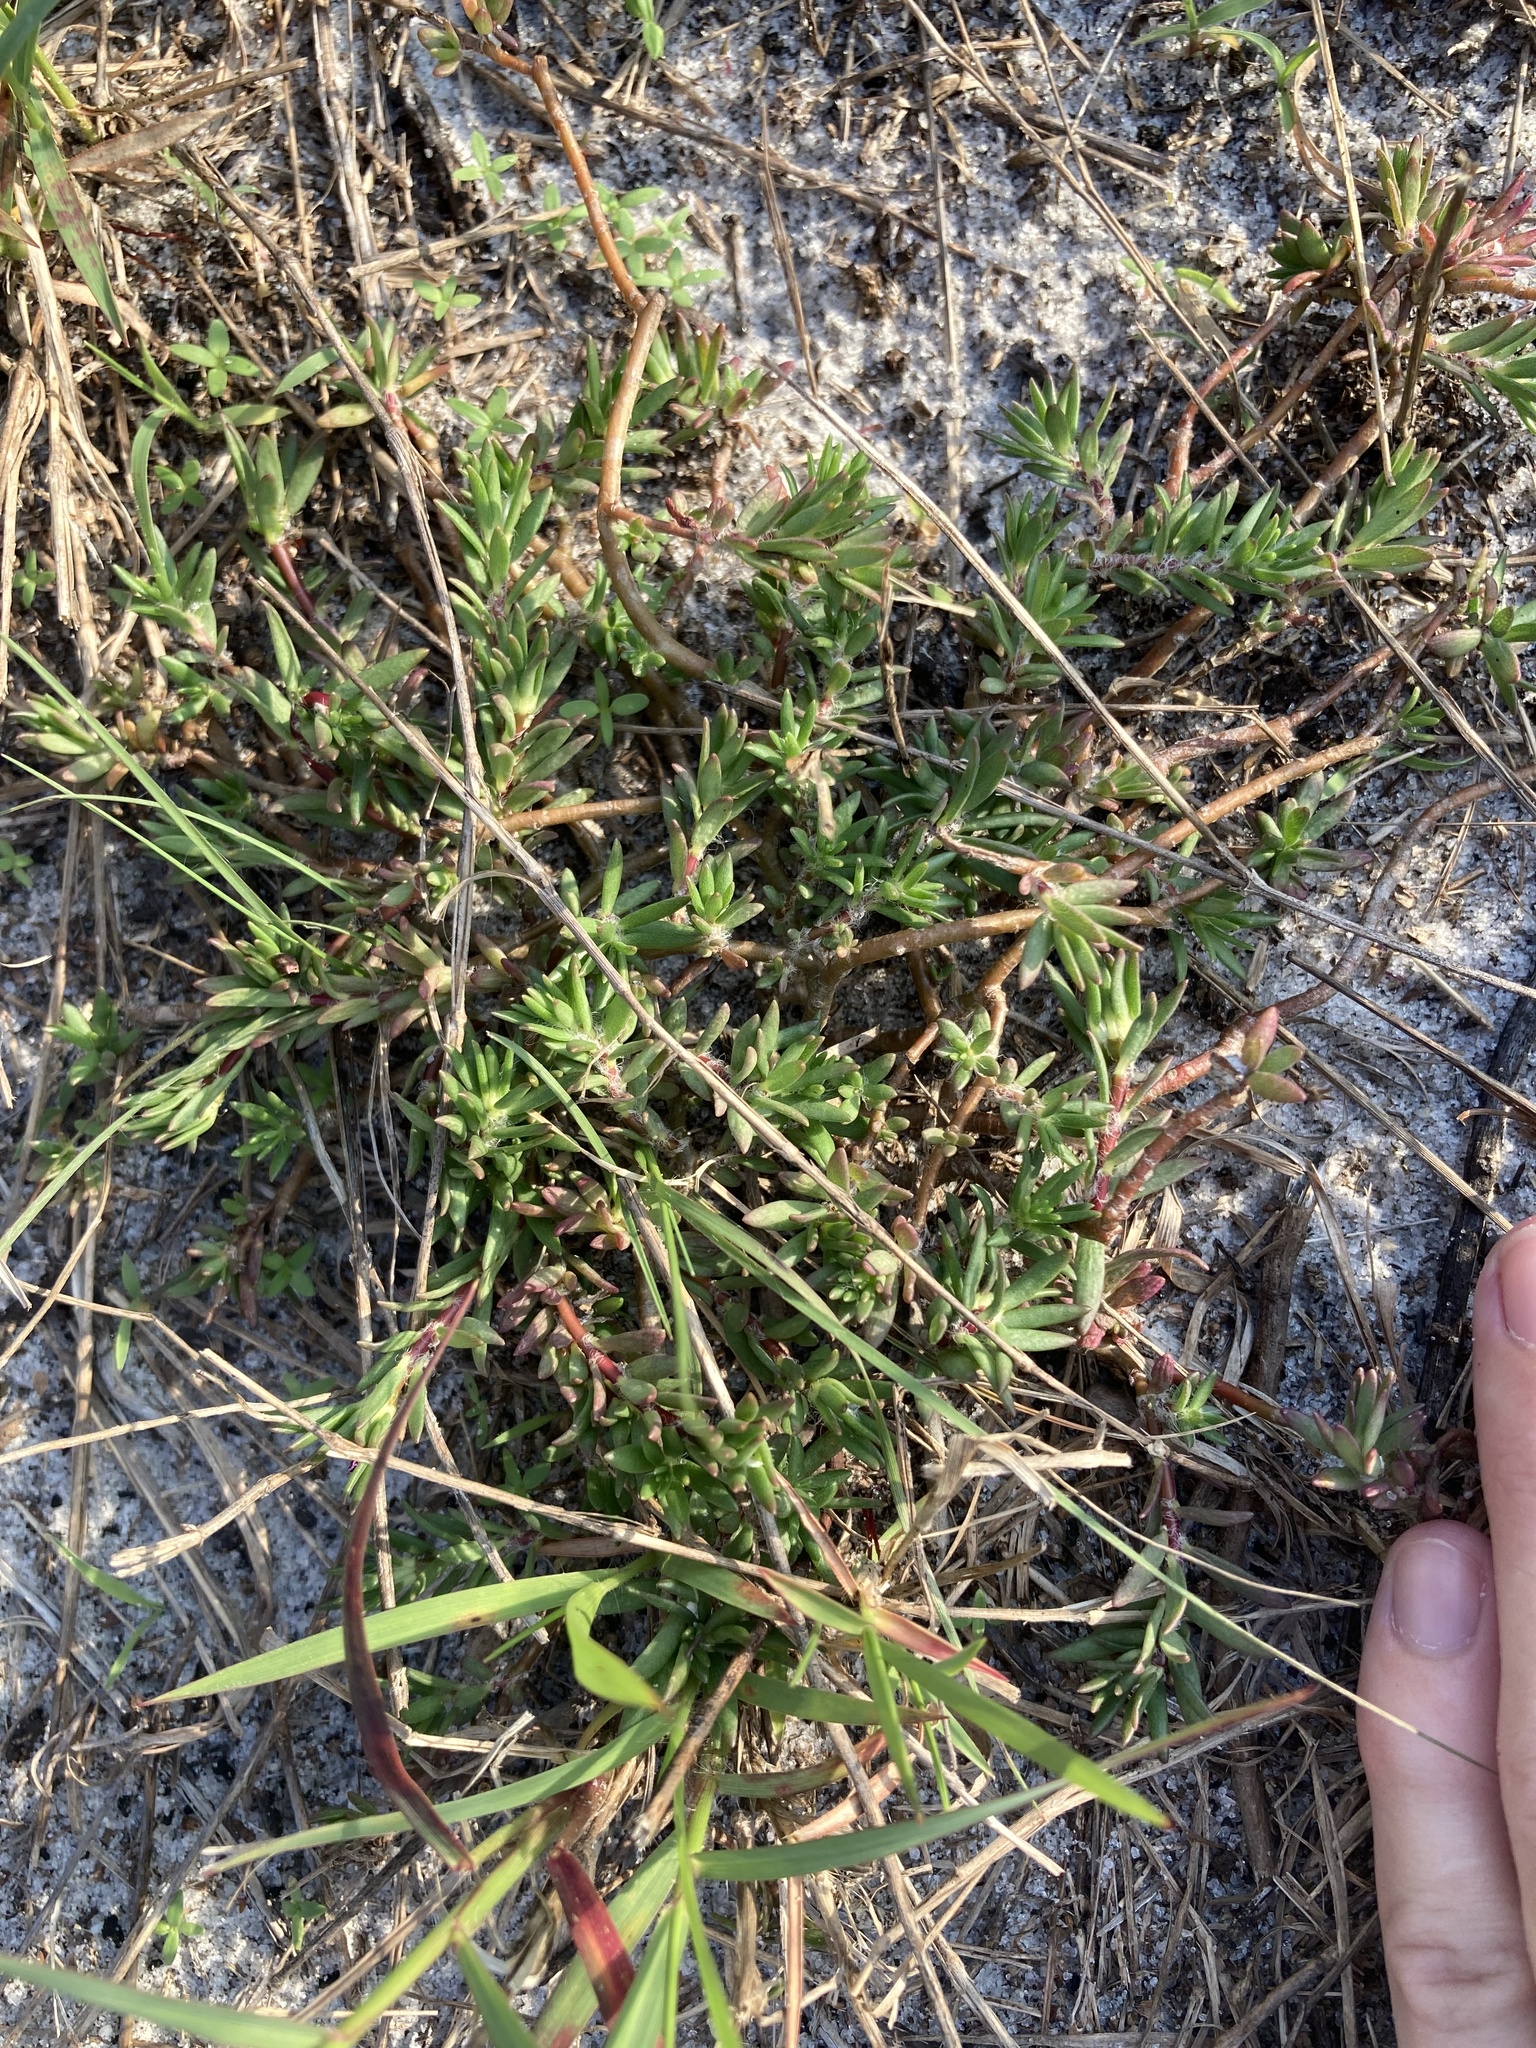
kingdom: Plantae
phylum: Tracheophyta
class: Magnoliopsida
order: Caryophyllales
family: Portulacaceae
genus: Portulaca
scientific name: Portulaca pilosa
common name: Kiss me quick
